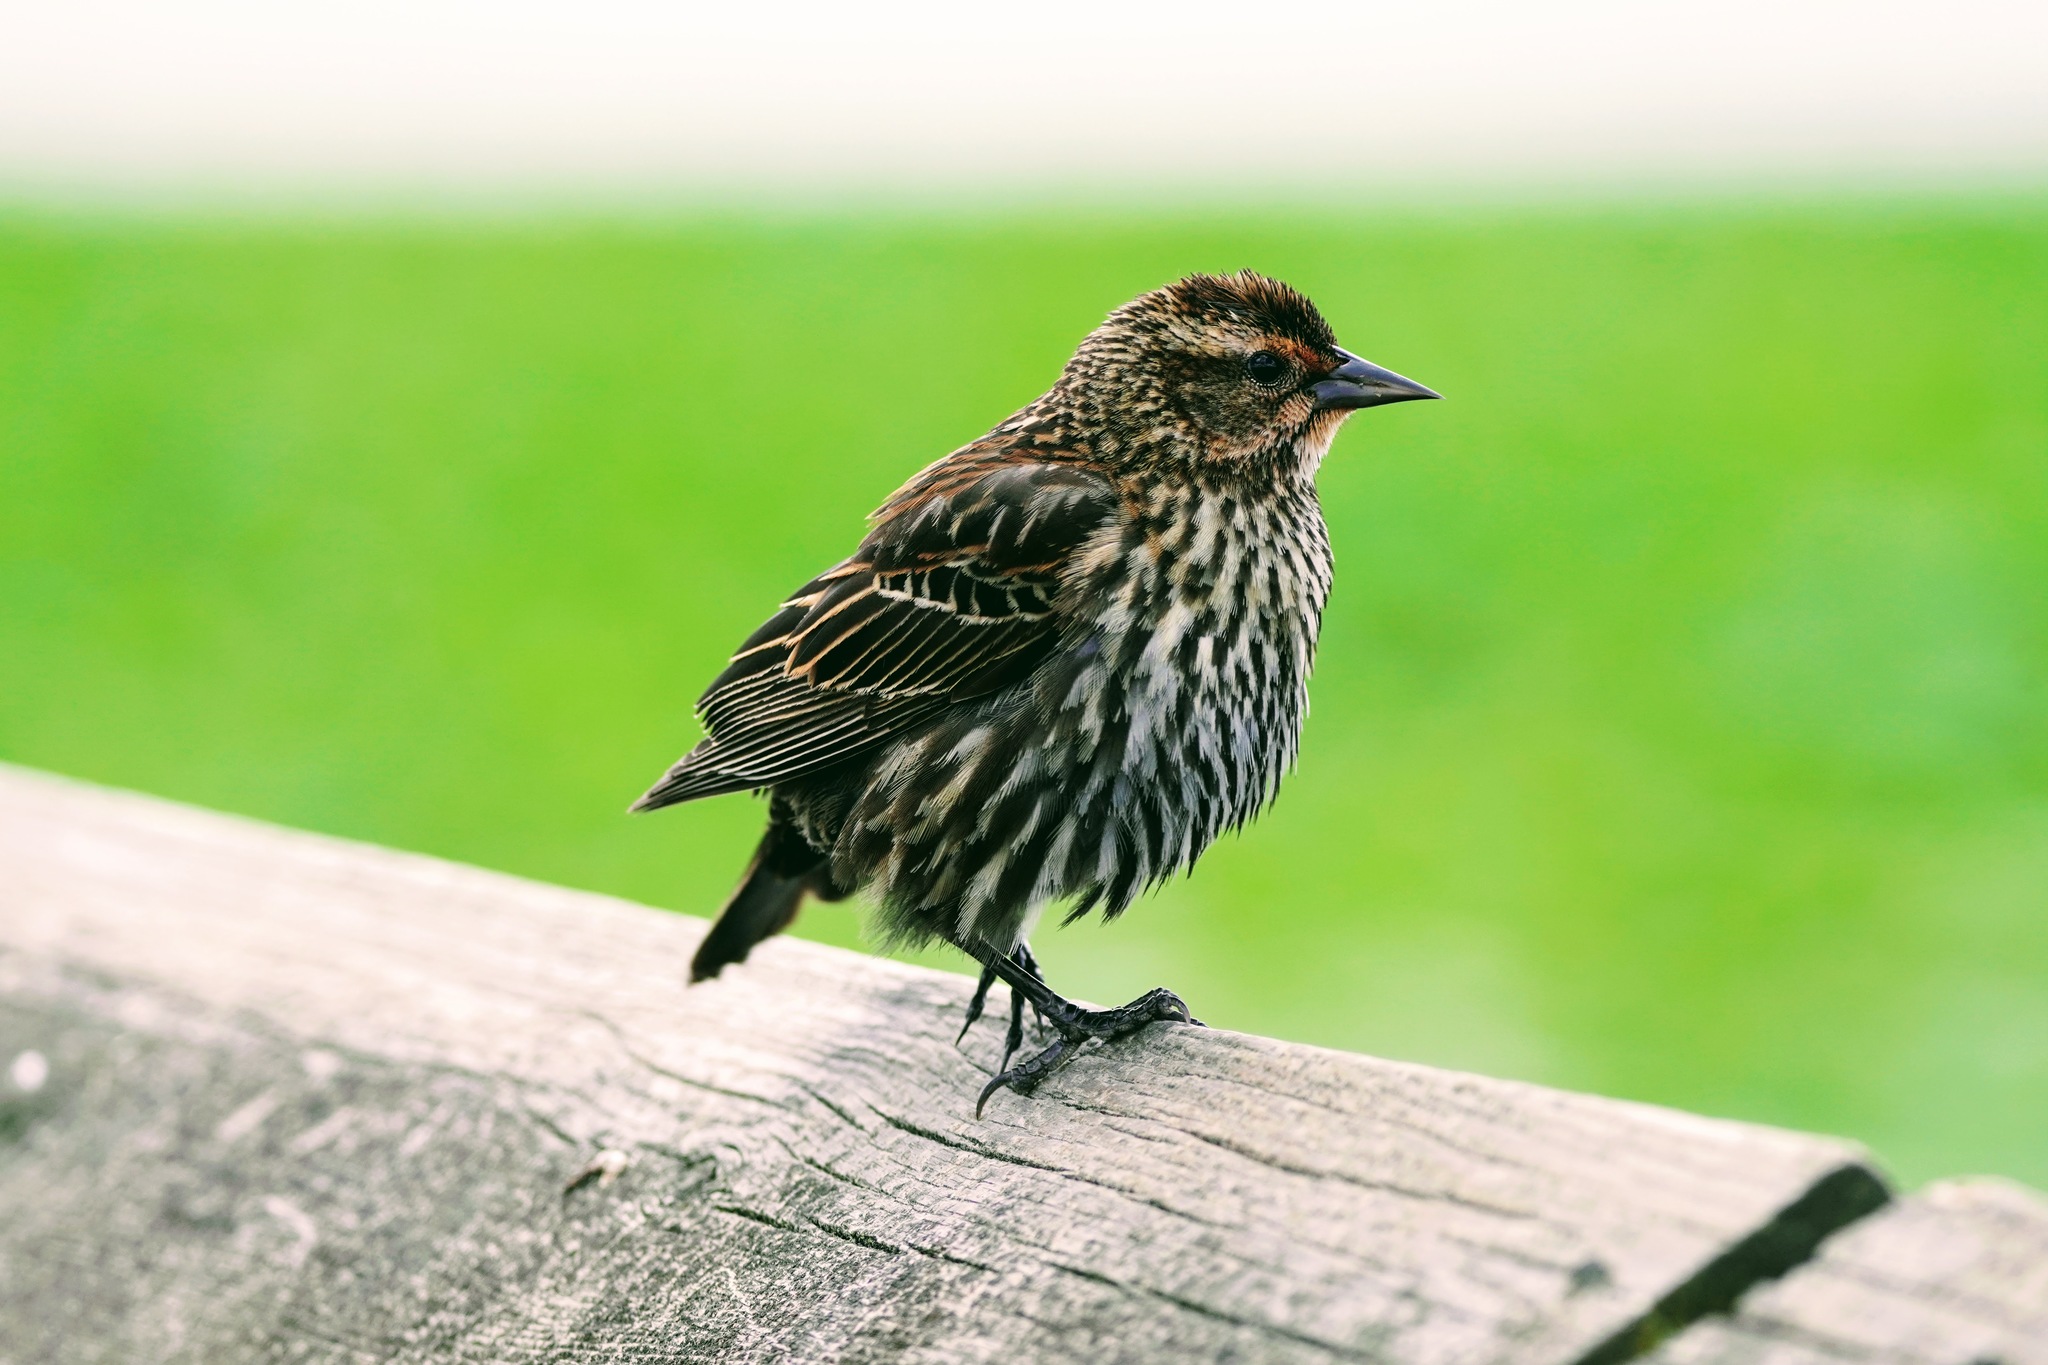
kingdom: Animalia
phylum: Chordata
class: Aves
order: Passeriformes
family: Icteridae
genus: Agelaius
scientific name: Agelaius phoeniceus
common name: Red-winged blackbird
